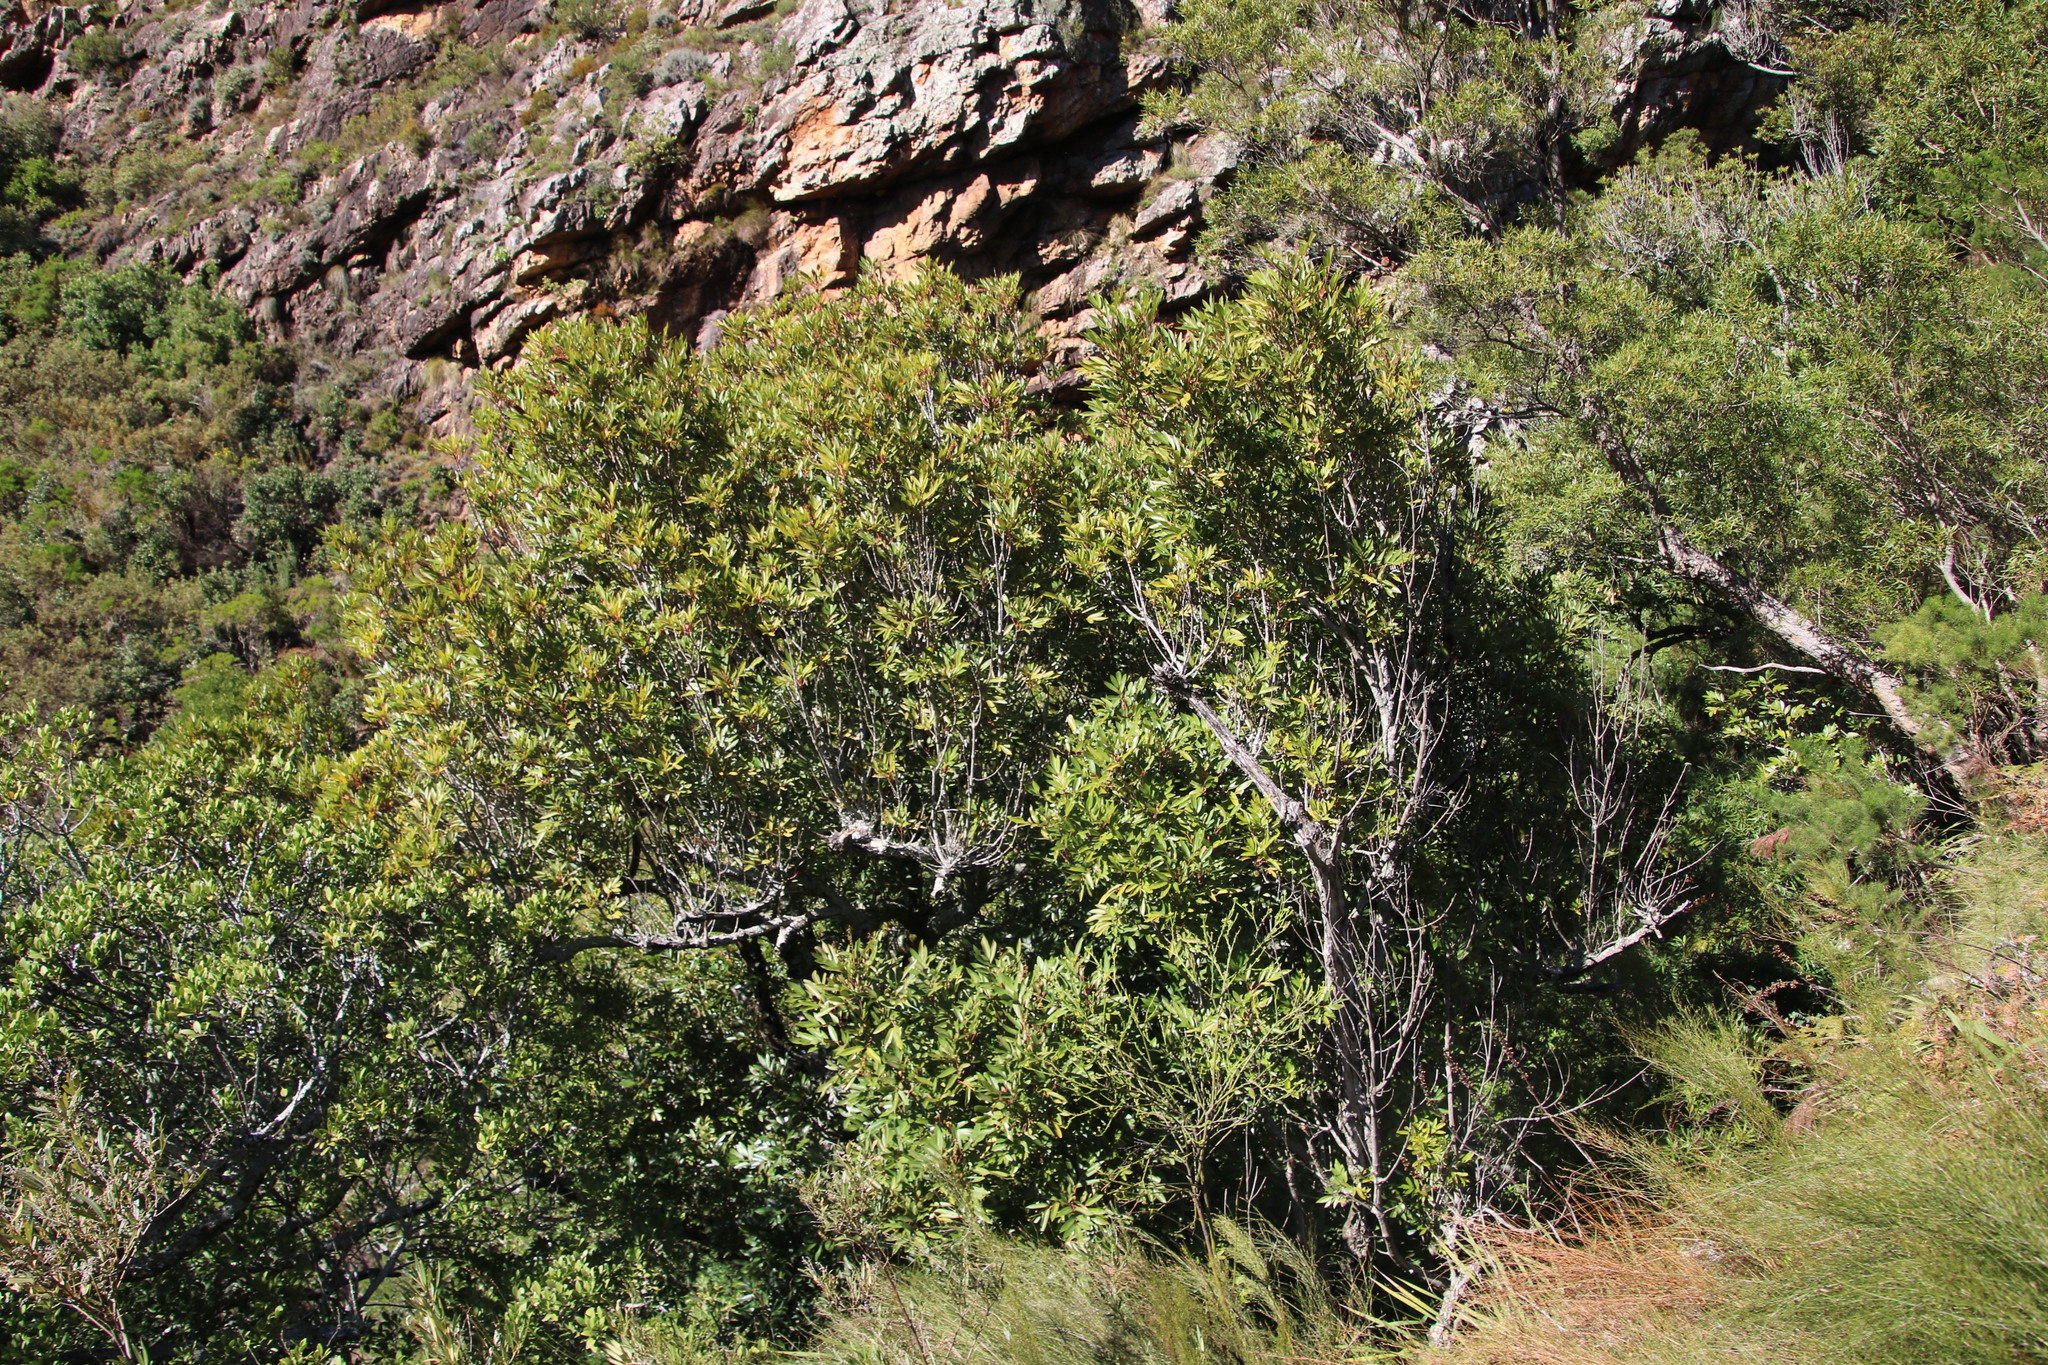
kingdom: Plantae
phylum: Tracheophyta
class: Magnoliopsida
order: Oxalidales
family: Cunoniaceae
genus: Cunonia
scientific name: Cunonia capensis
